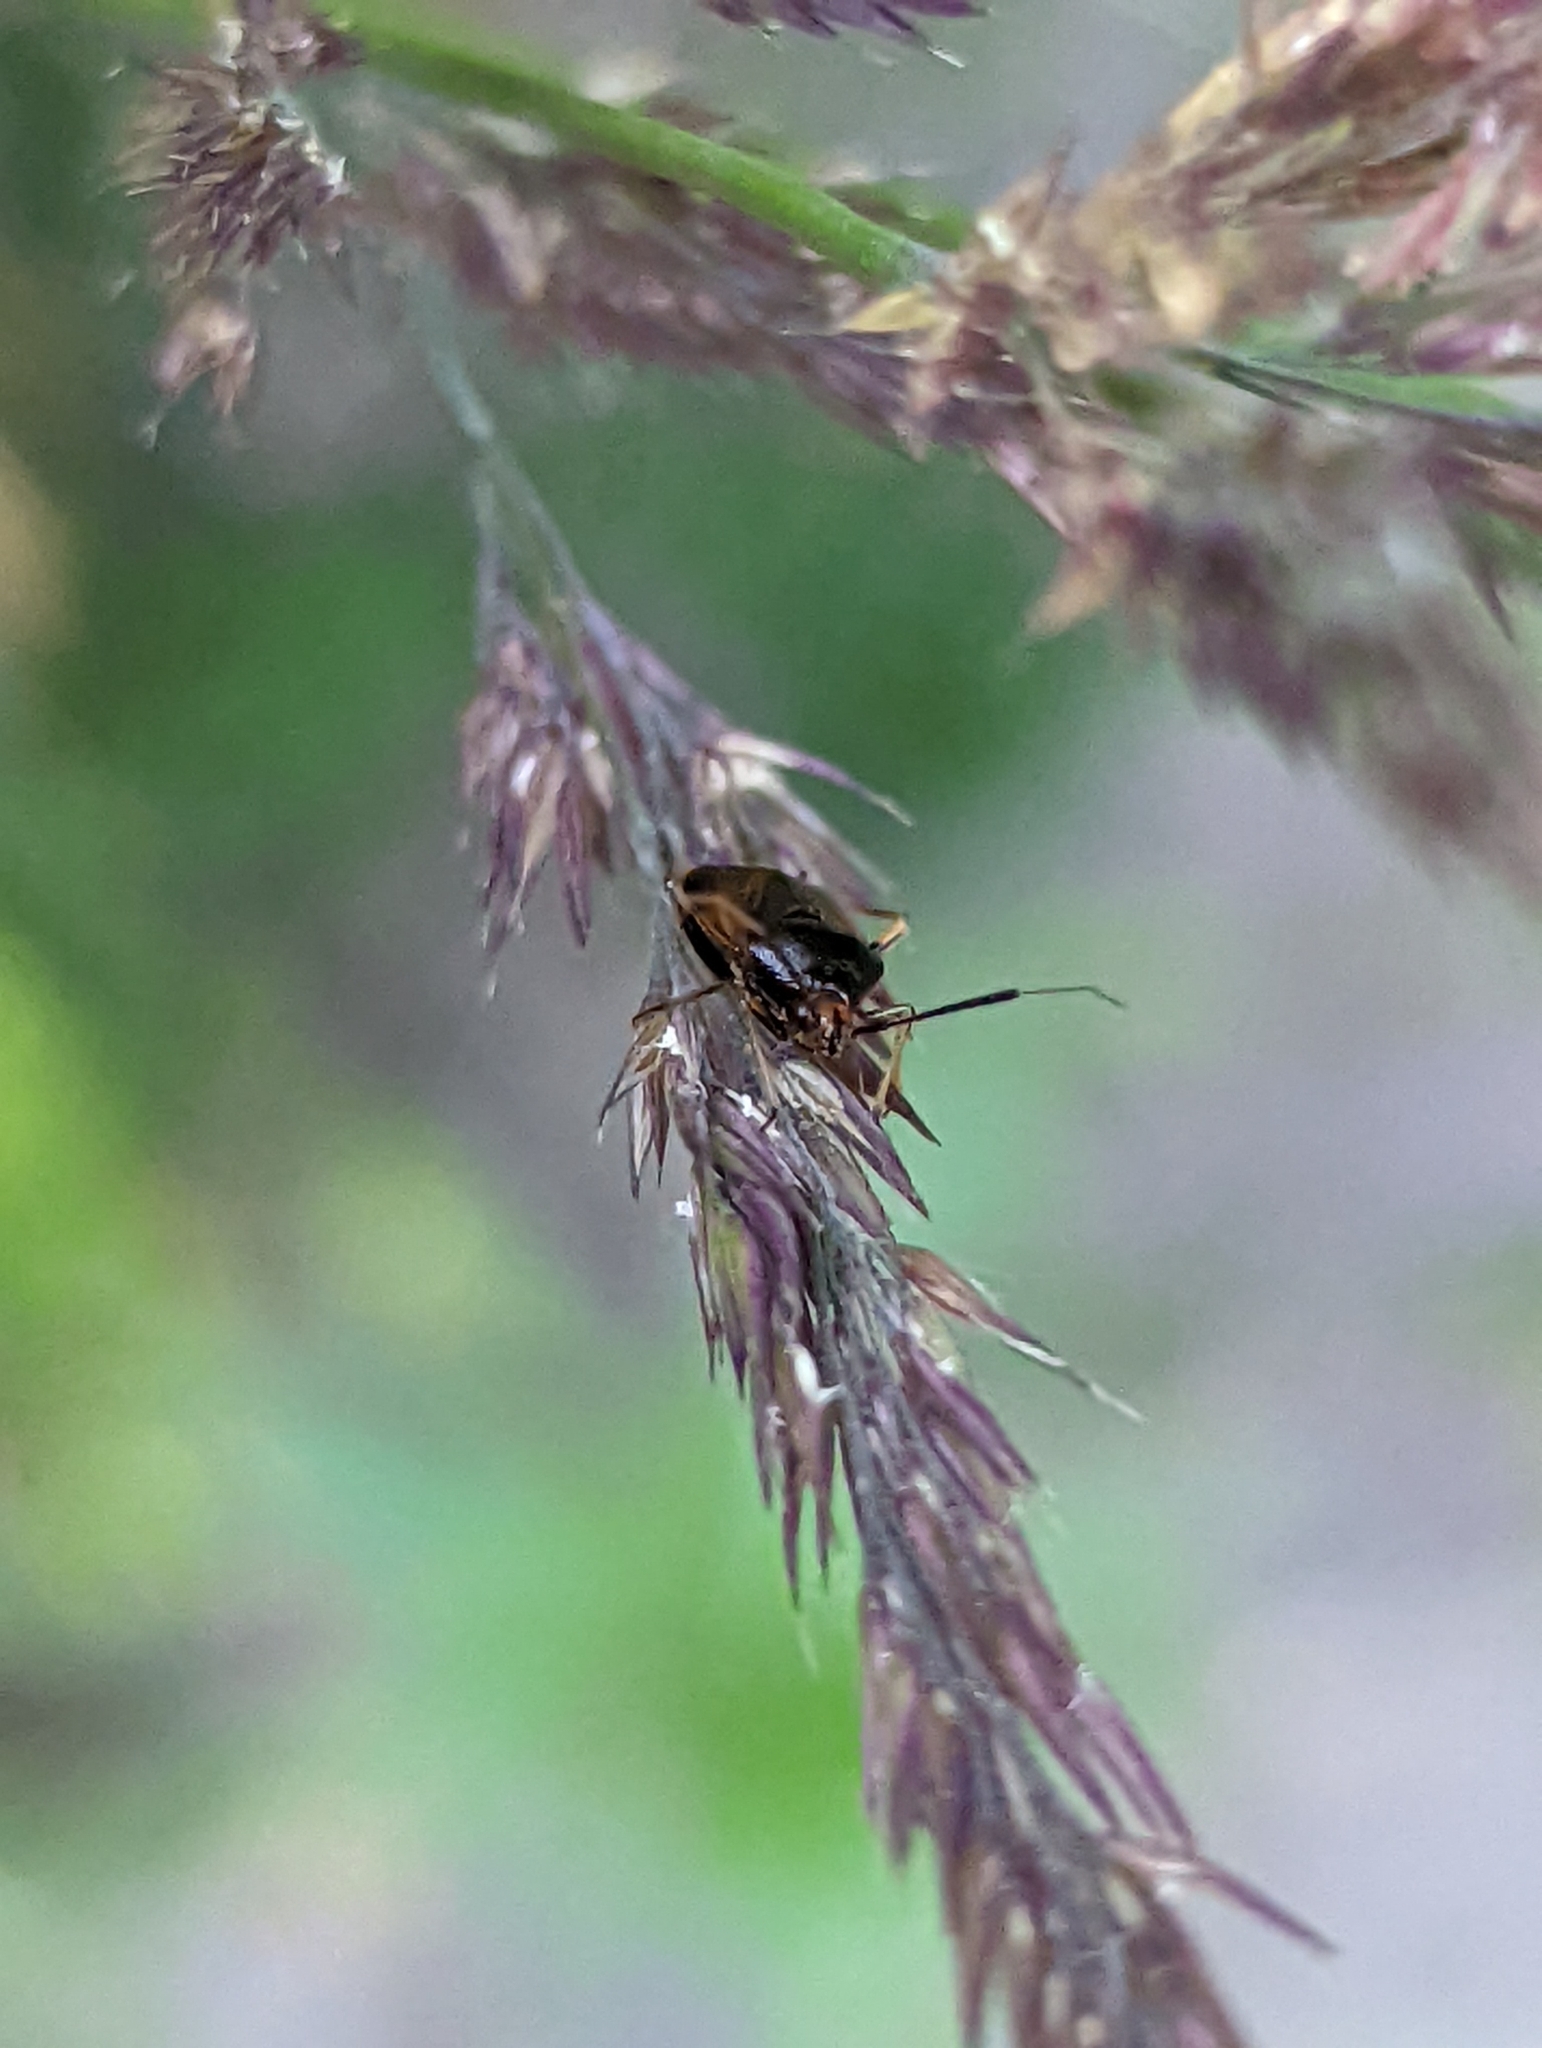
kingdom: Animalia
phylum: Arthropoda
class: Insecta
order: Hemiptera
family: Miridae
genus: Deraeocoris
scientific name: Deraeocoris ruber
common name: Plant bug
